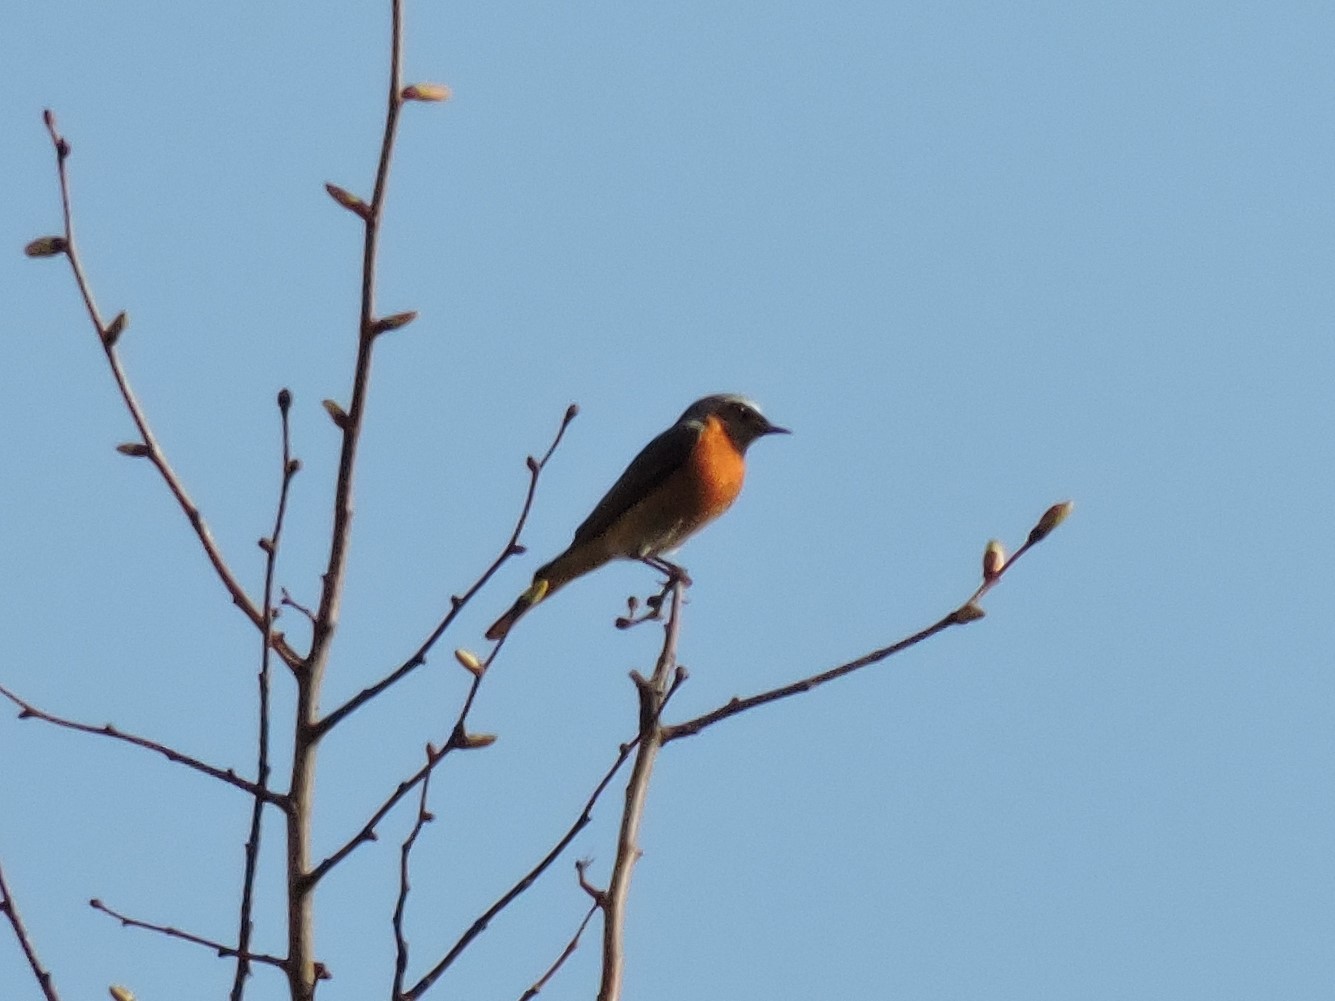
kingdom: Animalia
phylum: Chordata
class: Aves
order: Passeriformes
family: Muscicapidae
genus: Phoenicurus
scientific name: Phoenicurus phoenicurus
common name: Common redstart
